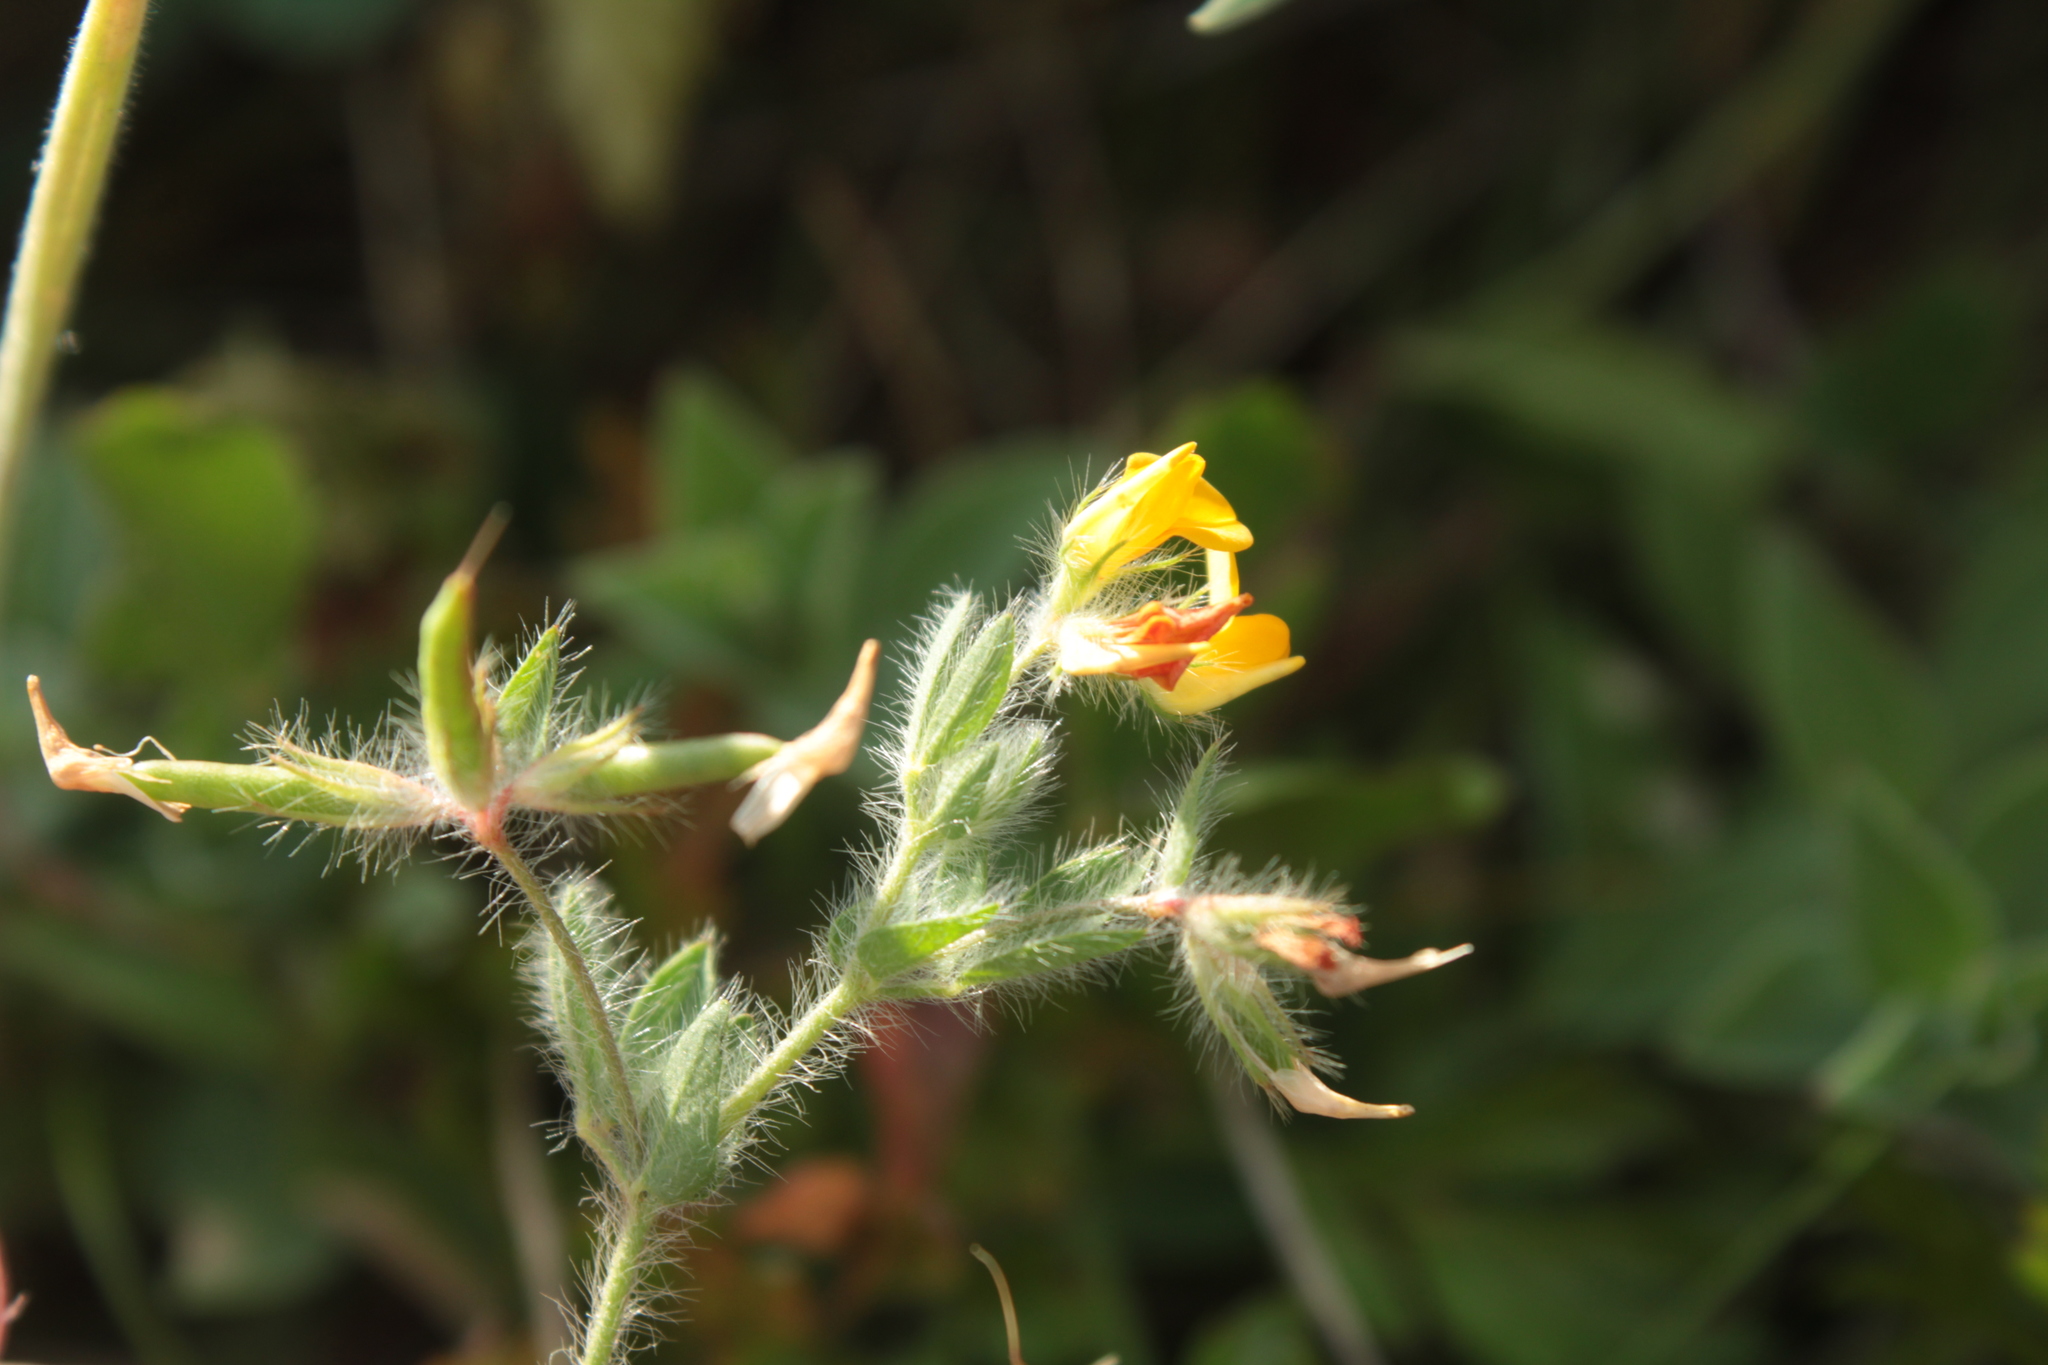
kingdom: Plantae
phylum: Tracheophyta
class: Magnoliopsida
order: Fabales
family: Fabaceae
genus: Lotus
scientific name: Lotus subbiflorus
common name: Hairy bird's-foot trefoil
